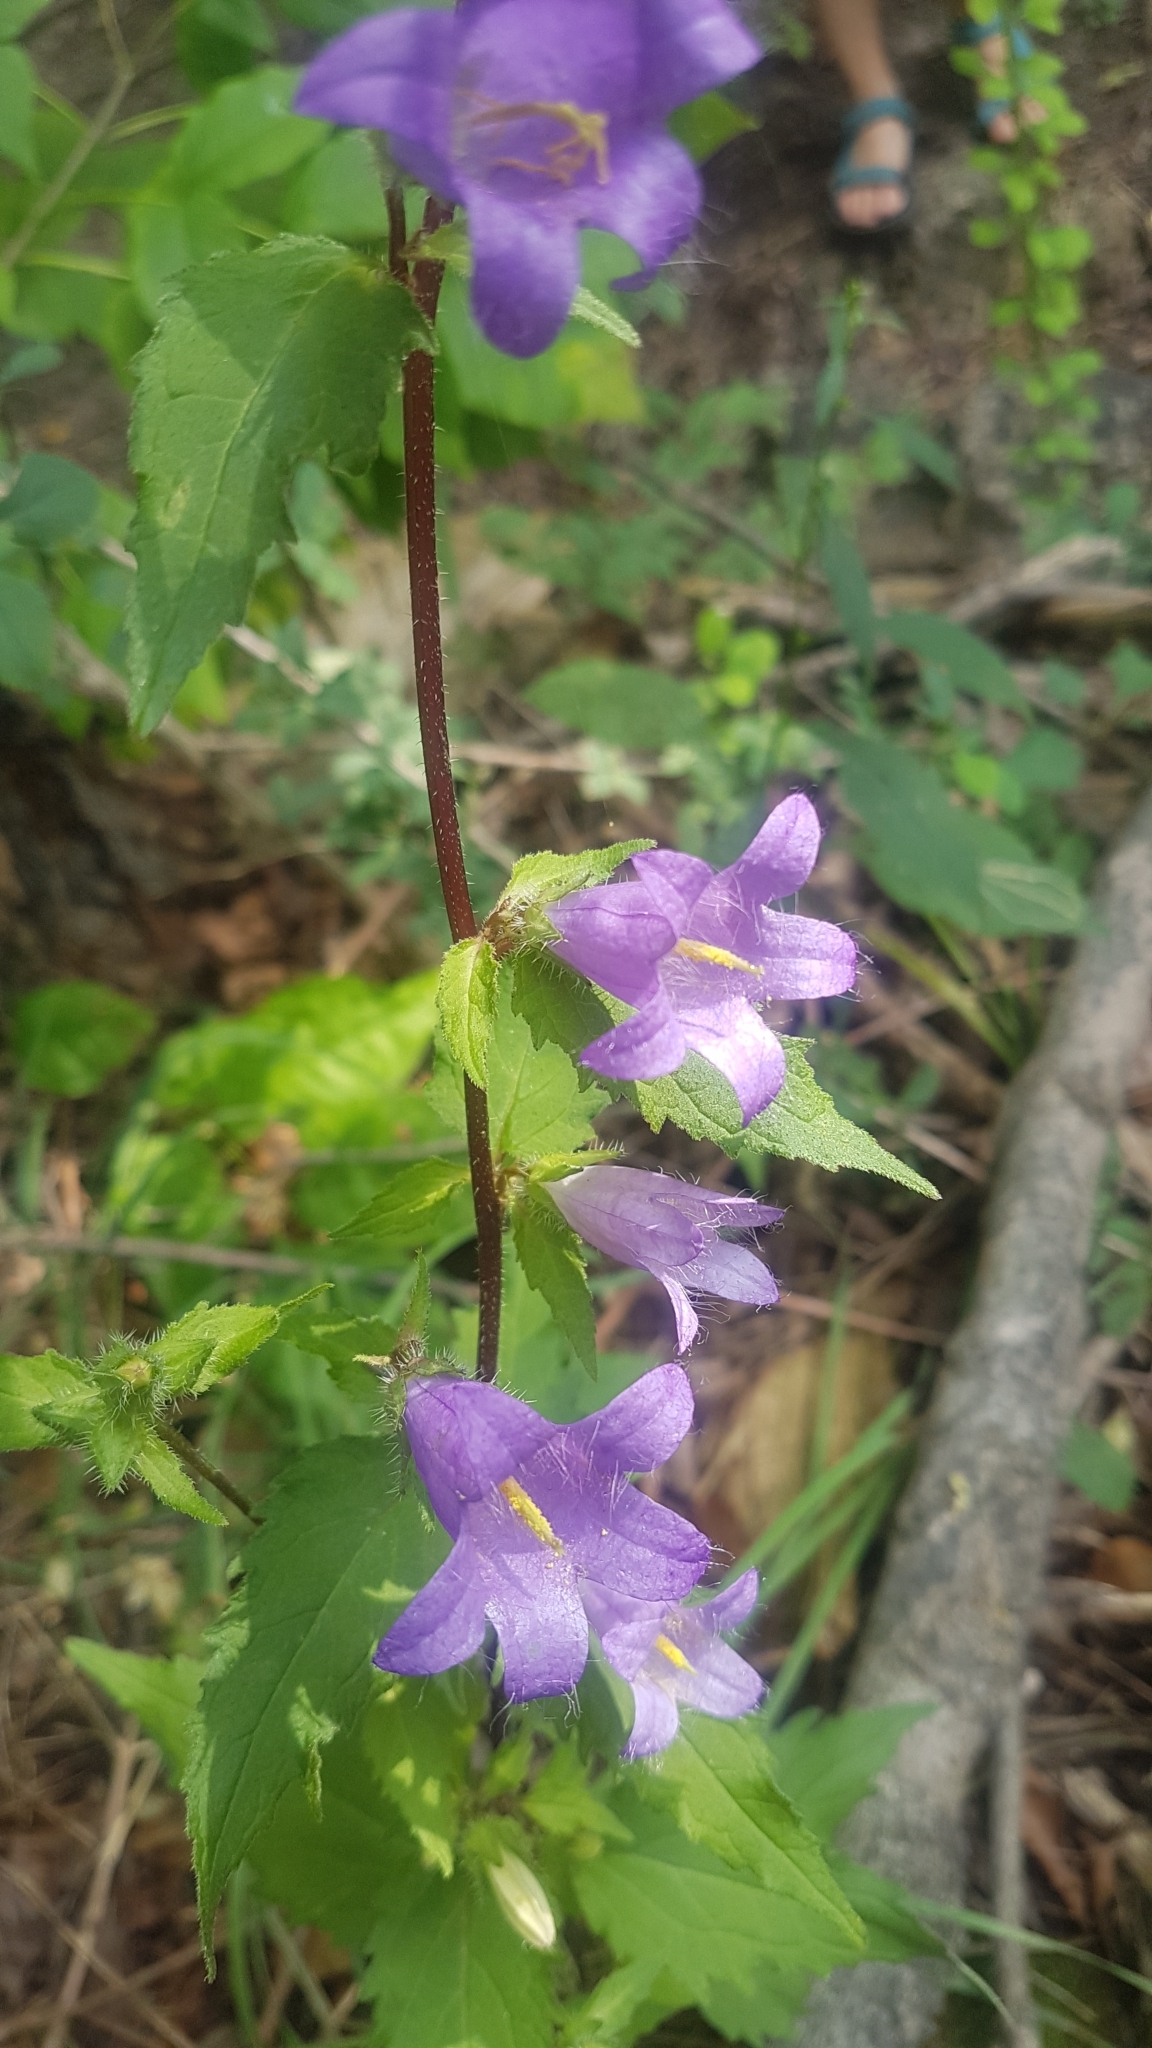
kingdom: Plantae
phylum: Tracheophyta
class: Magnoliopsida
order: Asterales
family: Campanulaceae
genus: Campanula
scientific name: Campanula trachelium
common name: Nettle-leaved bellflower
